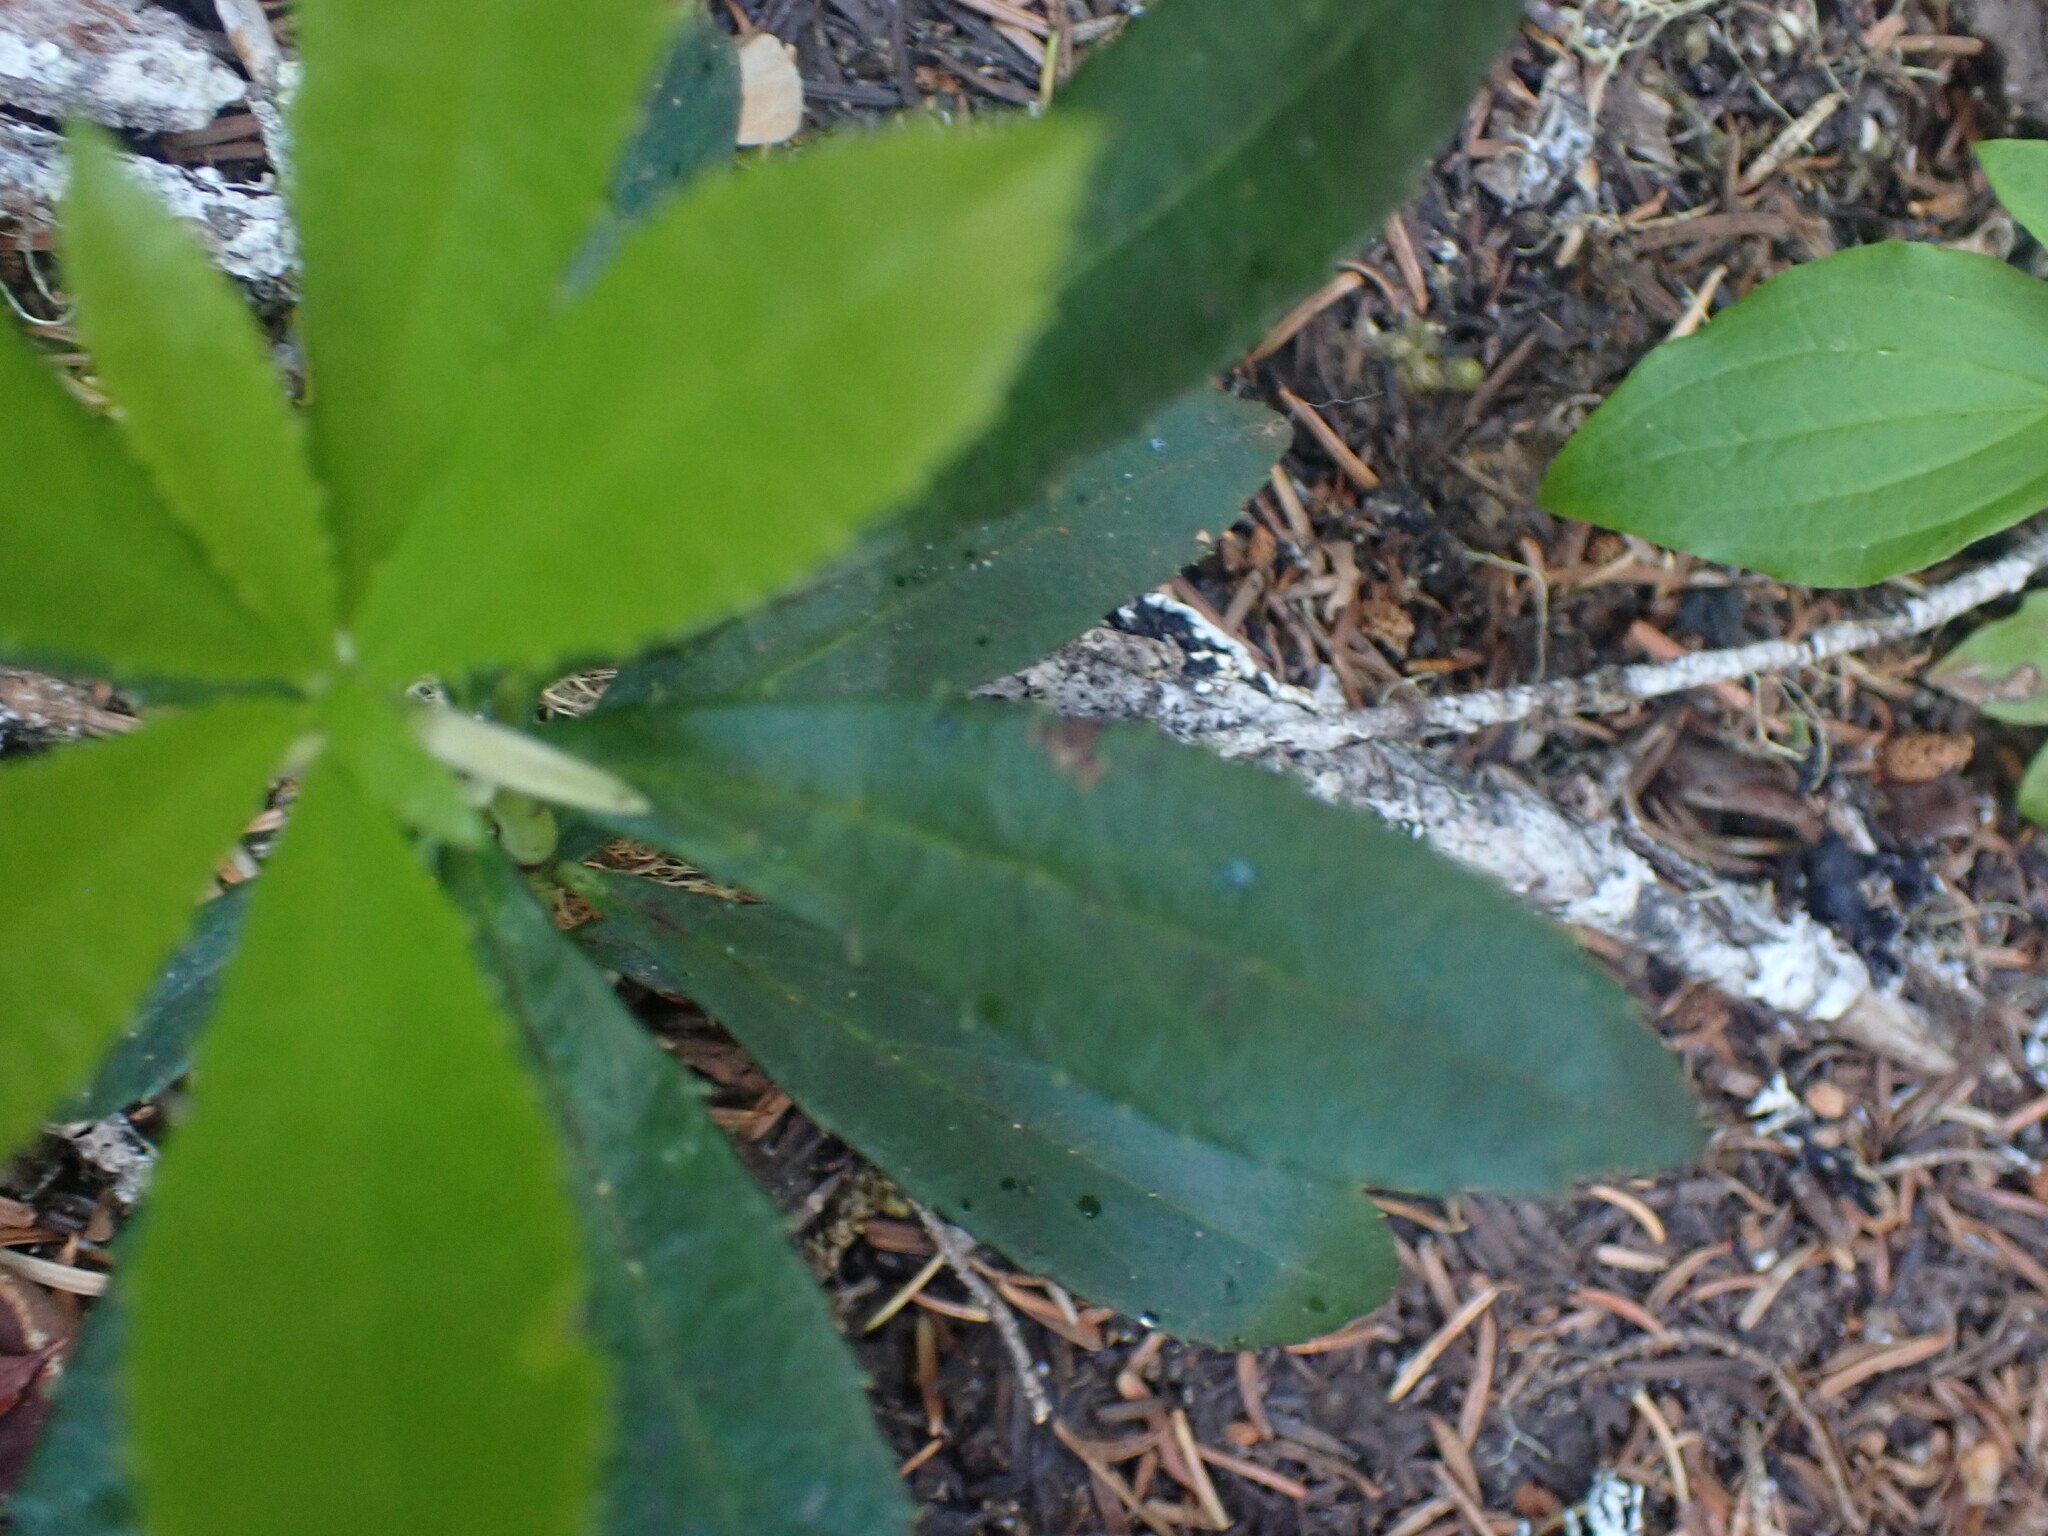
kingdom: Plantae
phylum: Tracheophyta
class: Magnoliopsida
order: Ericales
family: Ericaceae
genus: Chimaphila
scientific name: Chimaphila umbellata
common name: Pipsissewa
